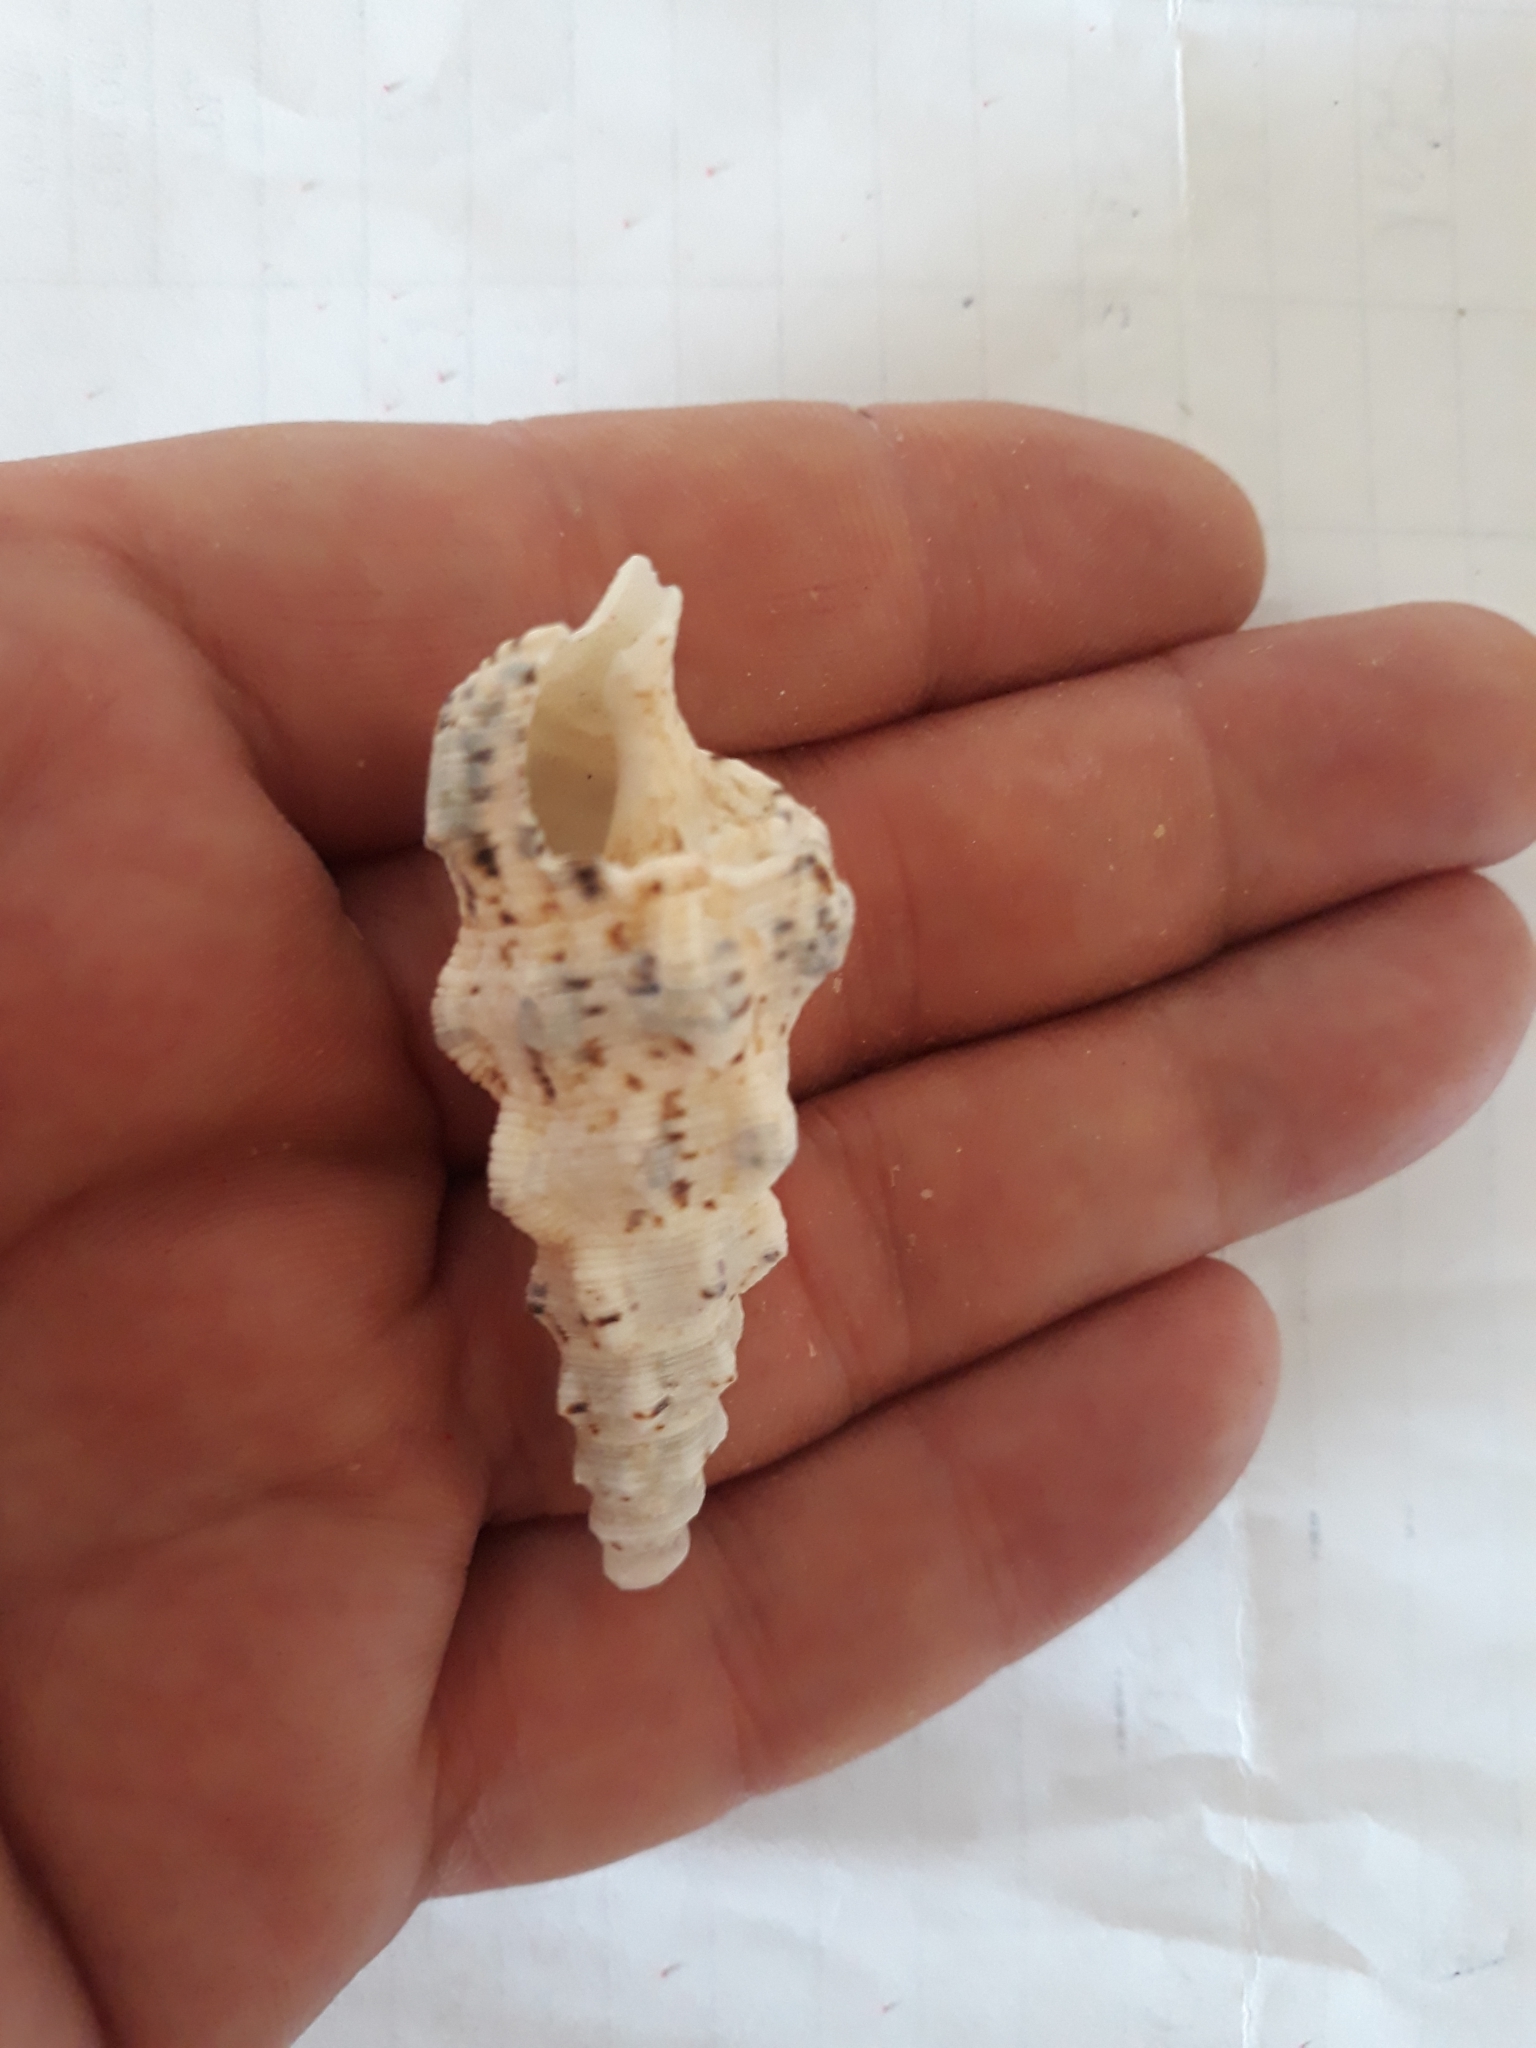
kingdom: Animalia
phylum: Mollusca
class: Gastropoda
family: Cerithiidae
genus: Cerithium
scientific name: Cerithium nodulosum
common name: Nadelschnecke giant knobbed cerith
